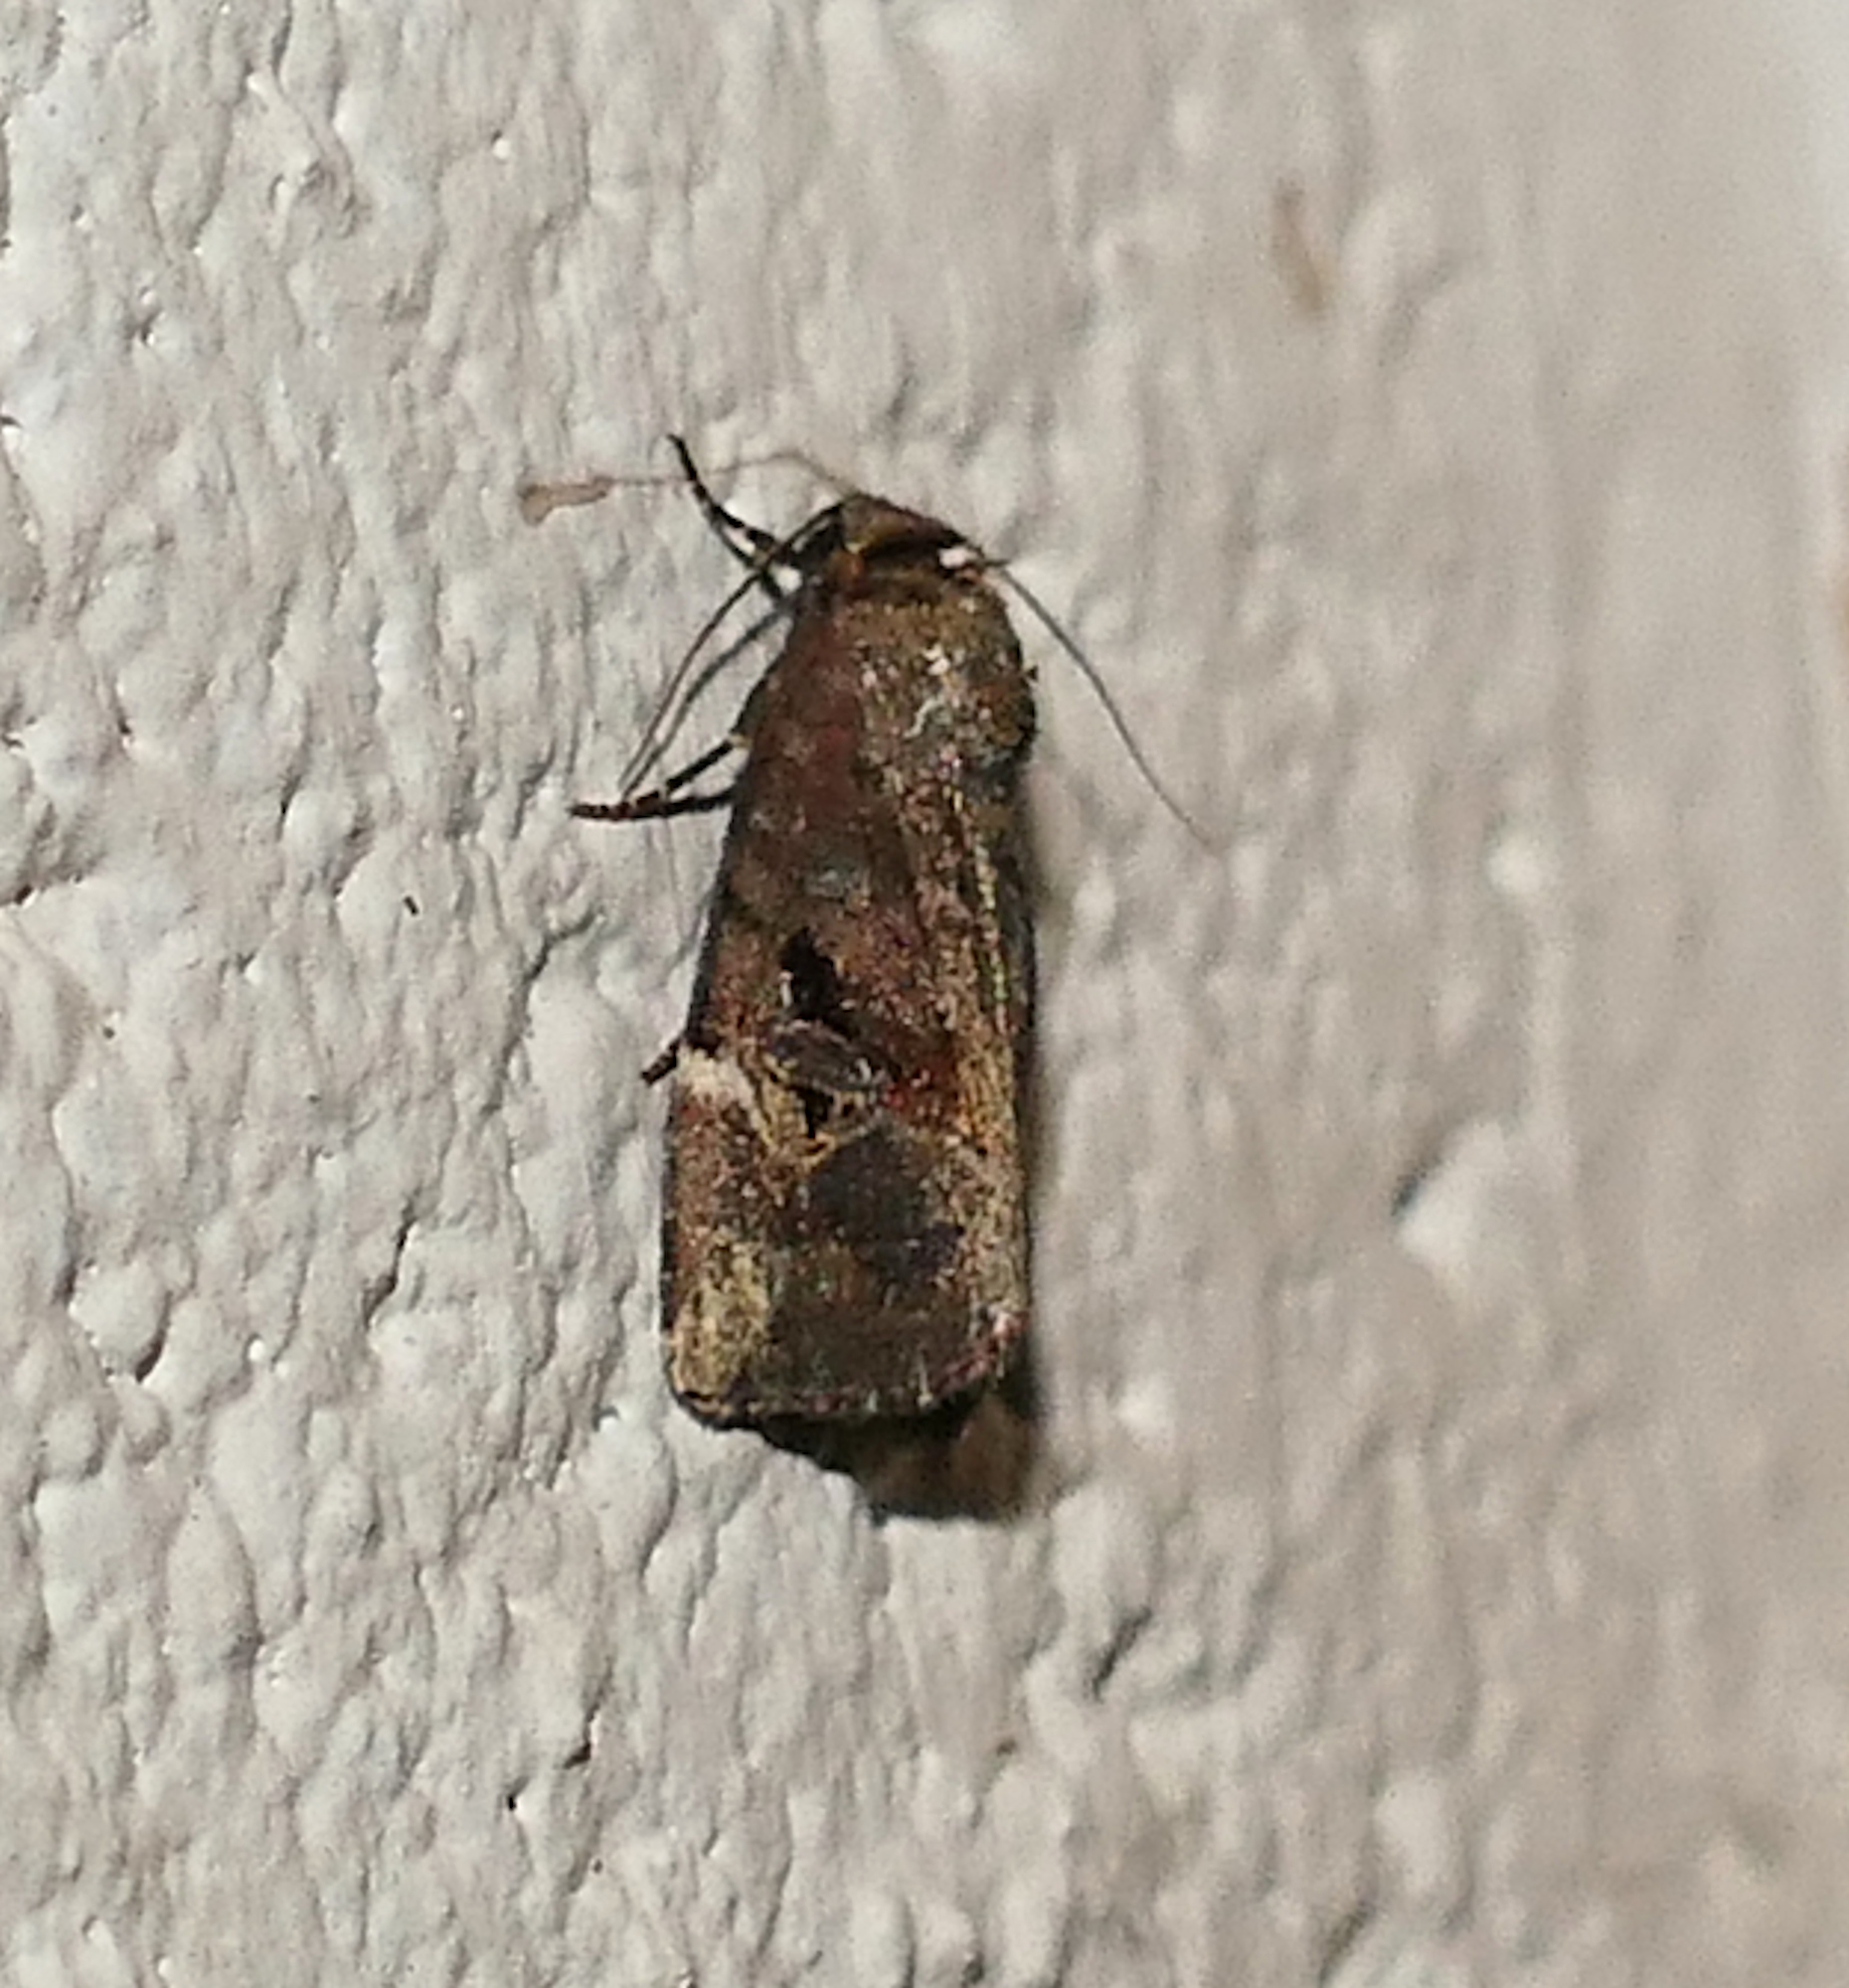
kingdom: Animalia
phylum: Arthropoda
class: Insecta
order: Lepidoptera
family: Noctuidae
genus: Elaphria
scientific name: Elaphria versicolor
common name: Fir harlequin
